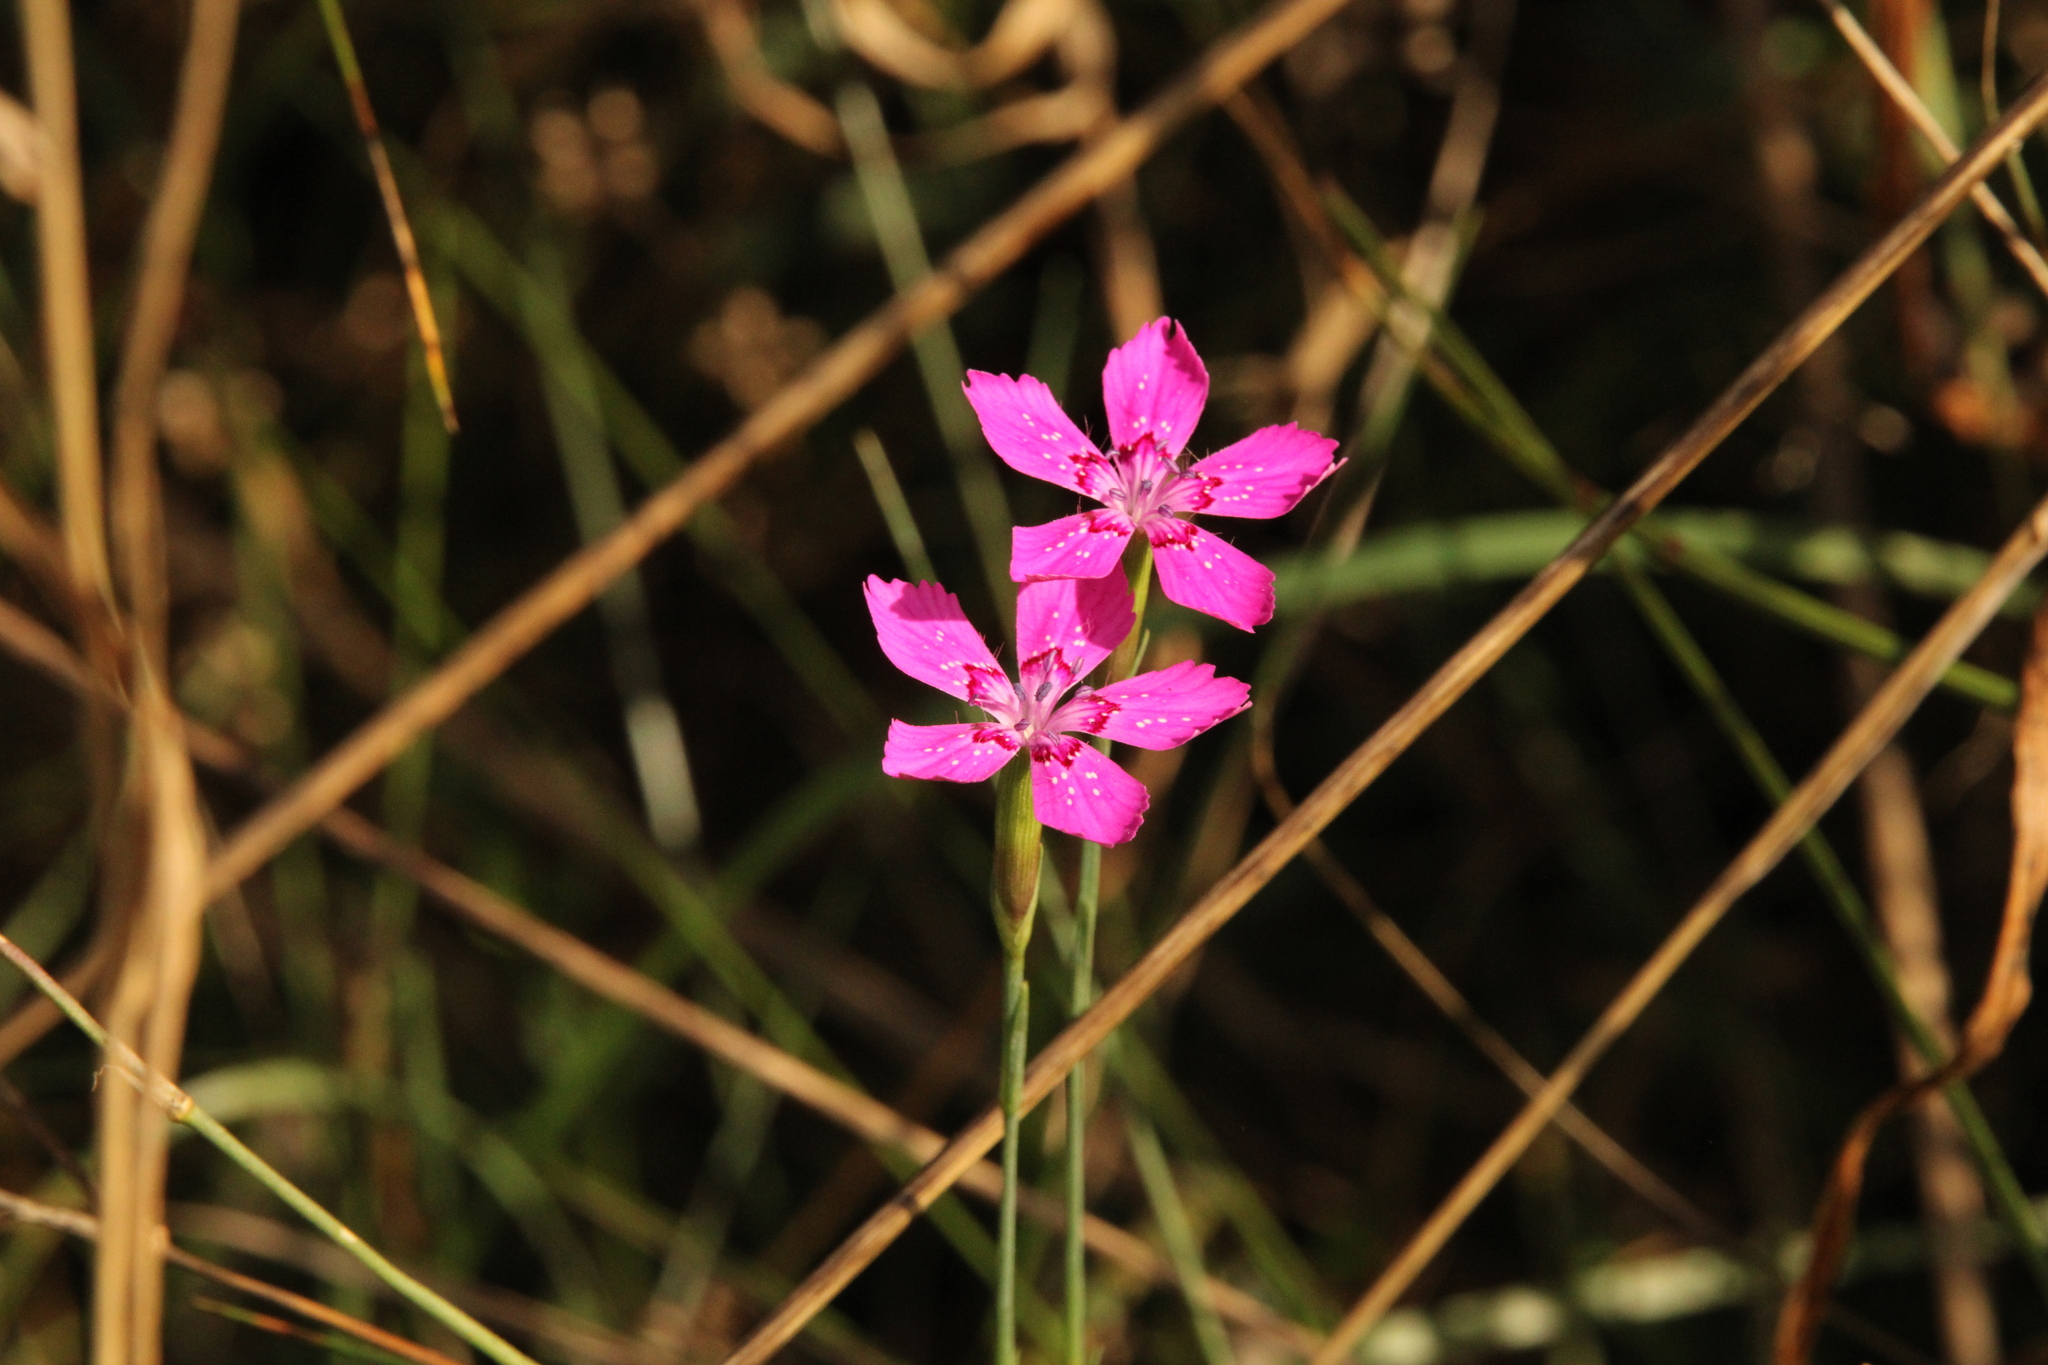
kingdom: Plantae
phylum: Tracheophyta
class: Magnoliopsida
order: Caryophyllales
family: Caryophyllaceae
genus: Dianthus
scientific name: Dianthus deltoides
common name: Maiden pink
